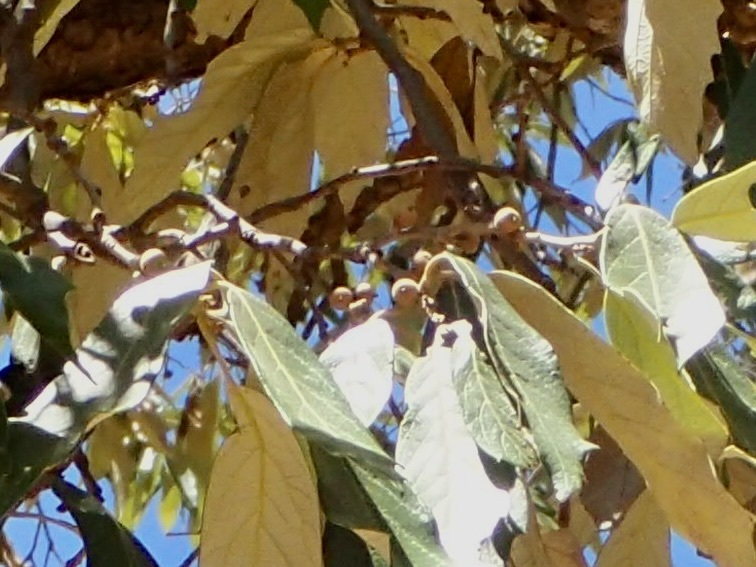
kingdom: Plantae
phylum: Tracheophyta
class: Magnoliopsida
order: Fagales
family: Fagaceae
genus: Quercus
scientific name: Quercus scytophylla
